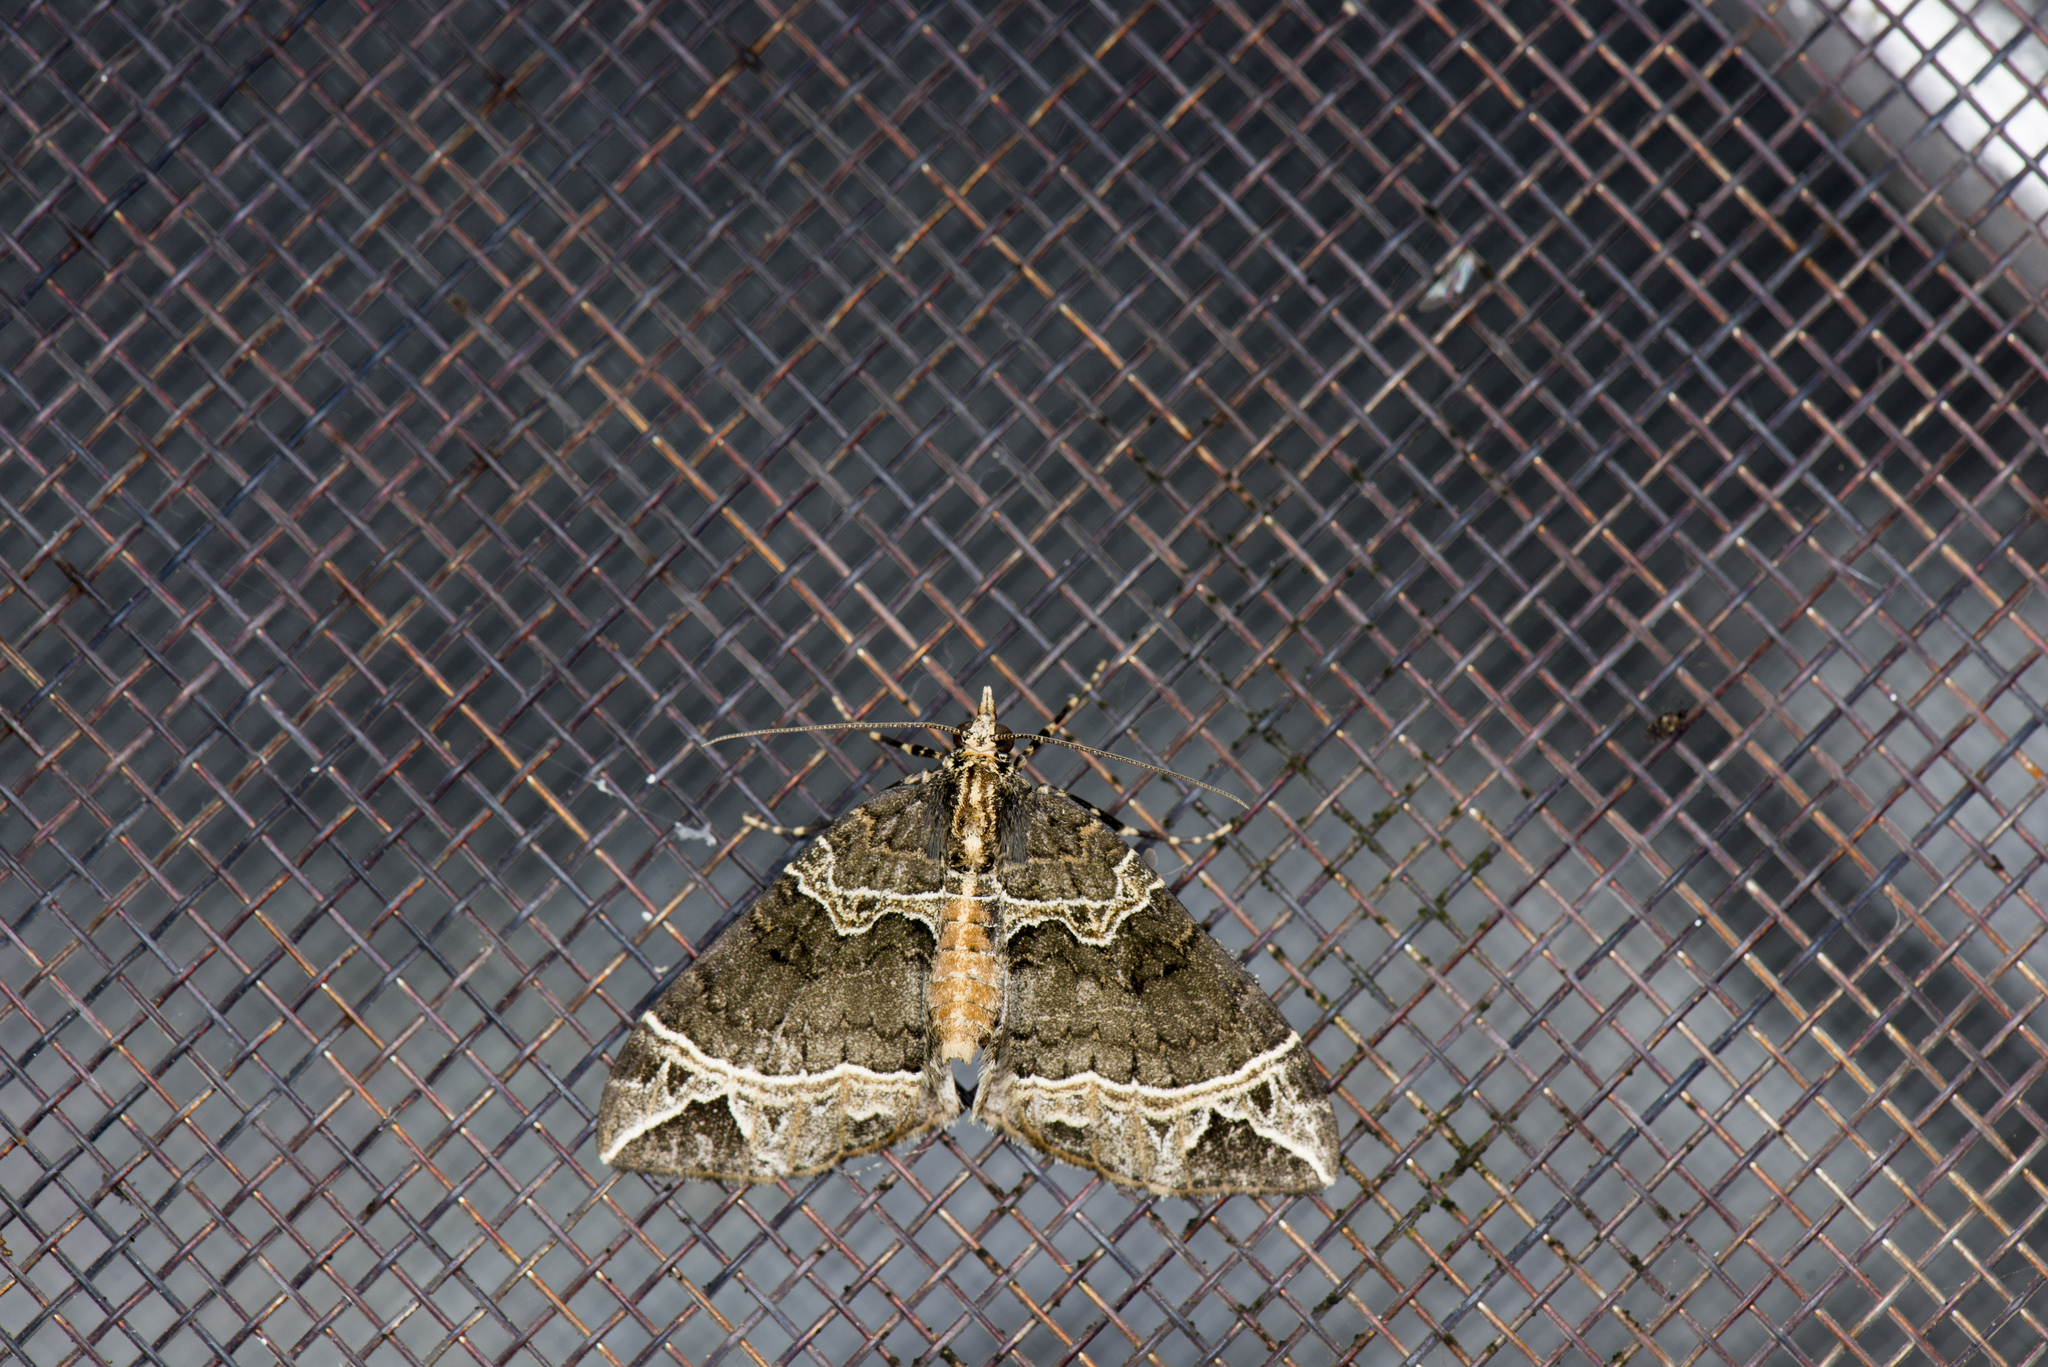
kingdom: Animalia
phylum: Arthropoda
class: Insecta
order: Lepidoptera
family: Geometridae
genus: Ecliptopera
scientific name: Ecliptopera umbrosaria
